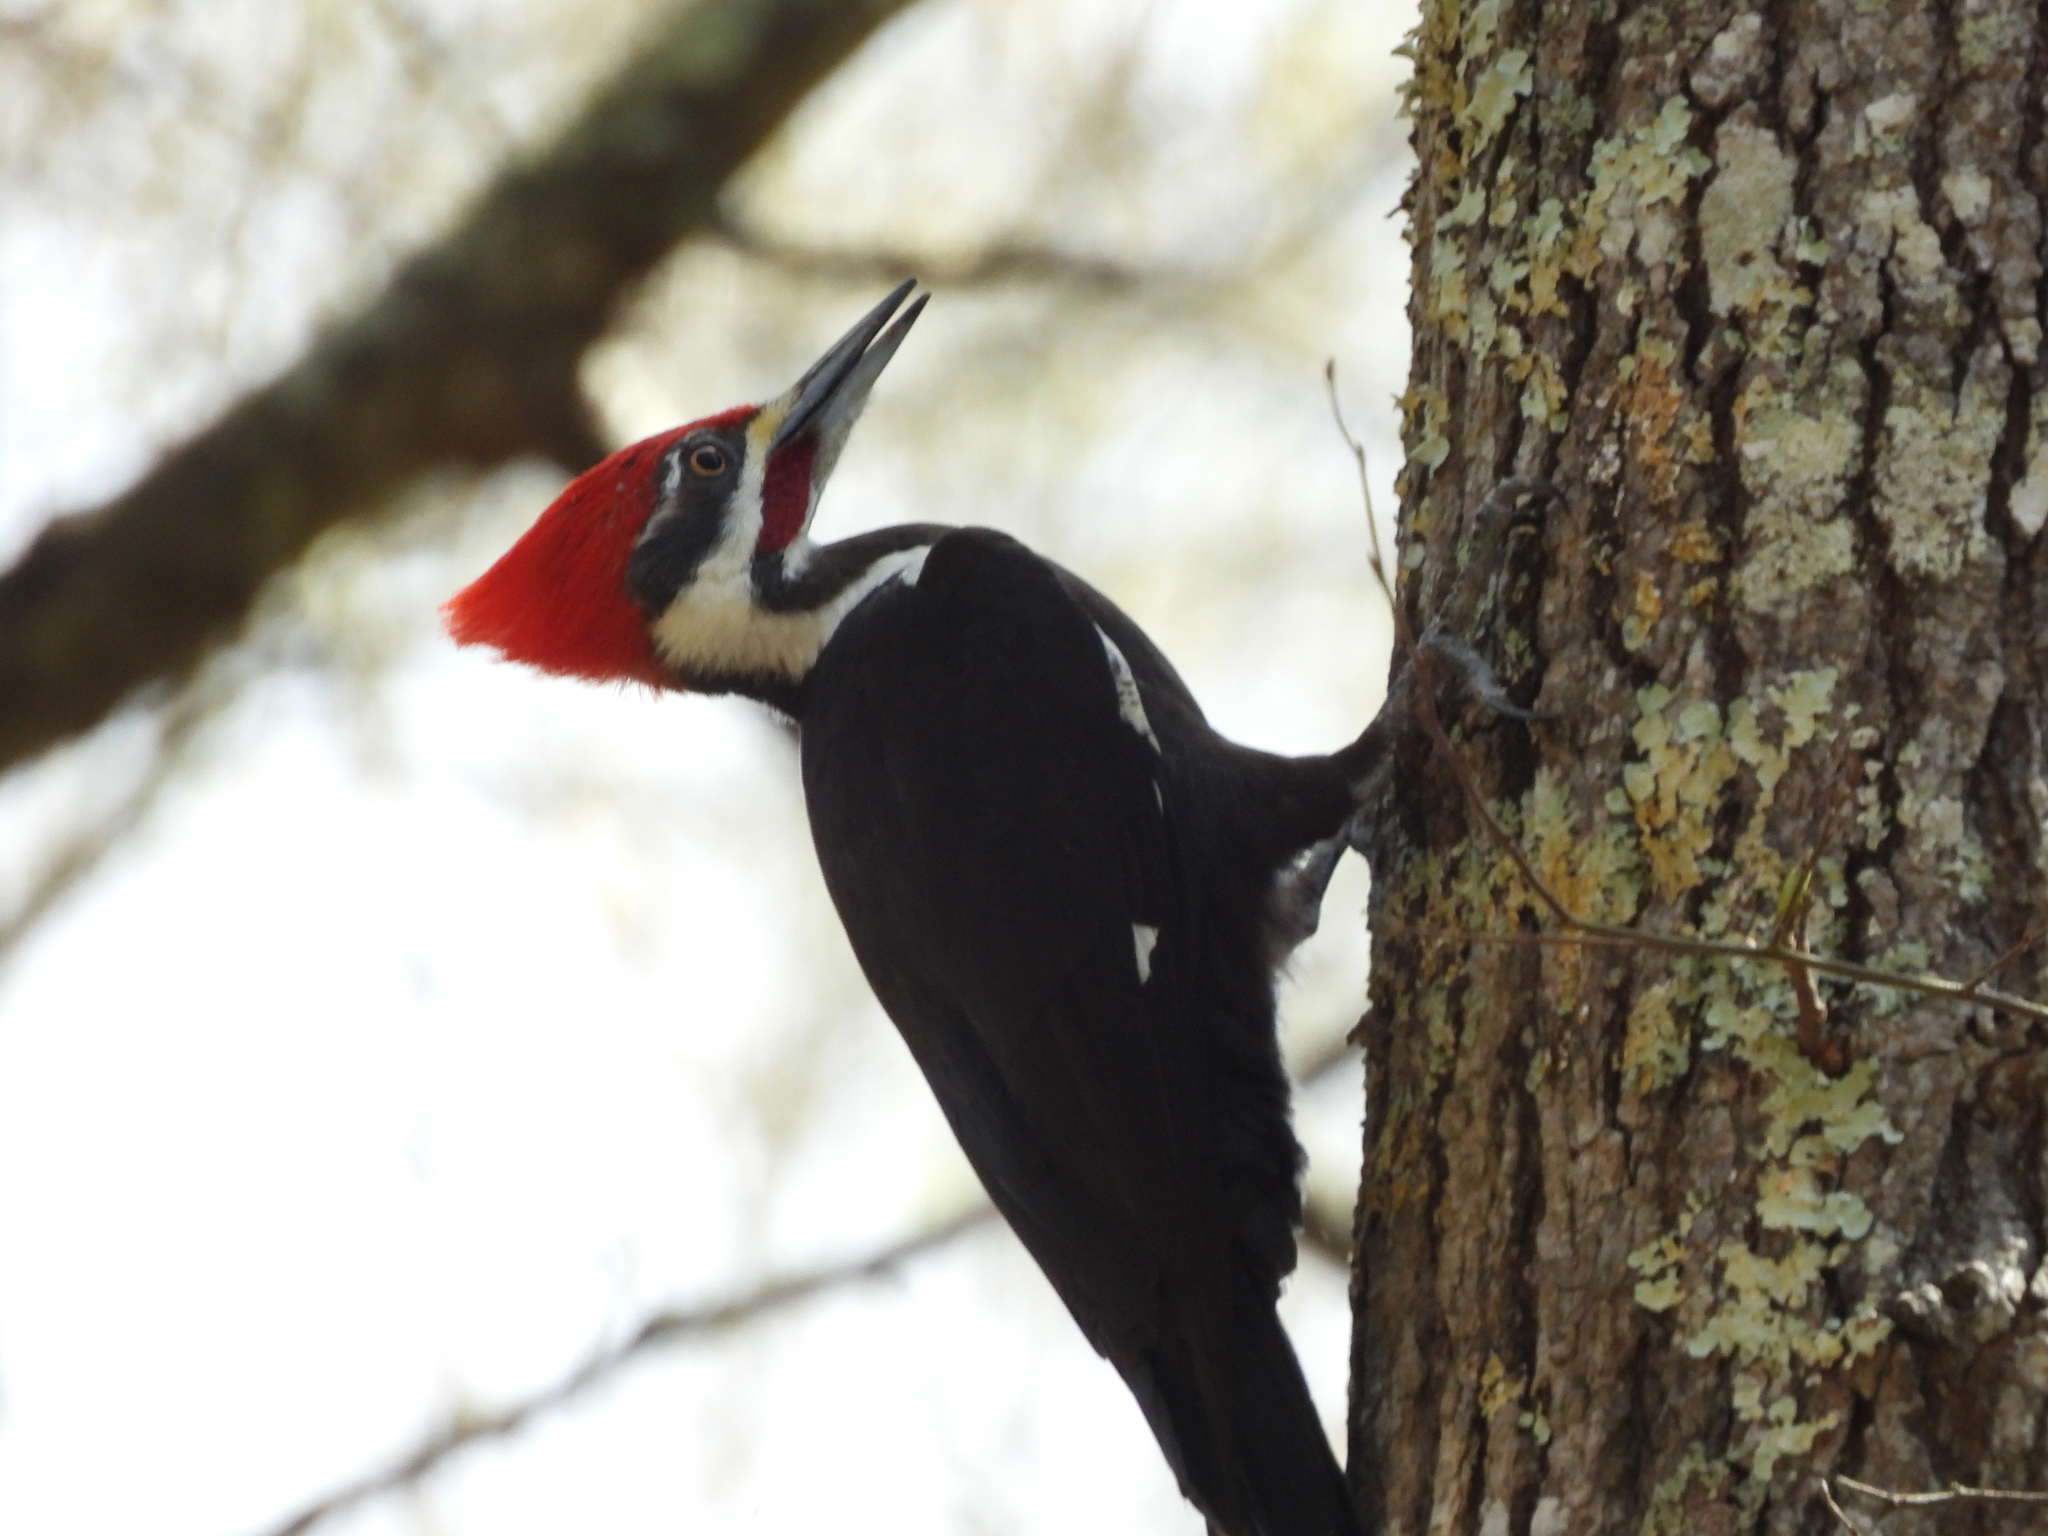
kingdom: Animalia
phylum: Chordata
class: Aves
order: Piciformes
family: Picidae
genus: Dryocopus
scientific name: Dryocopus pileatus
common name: Pileated woodpecker
